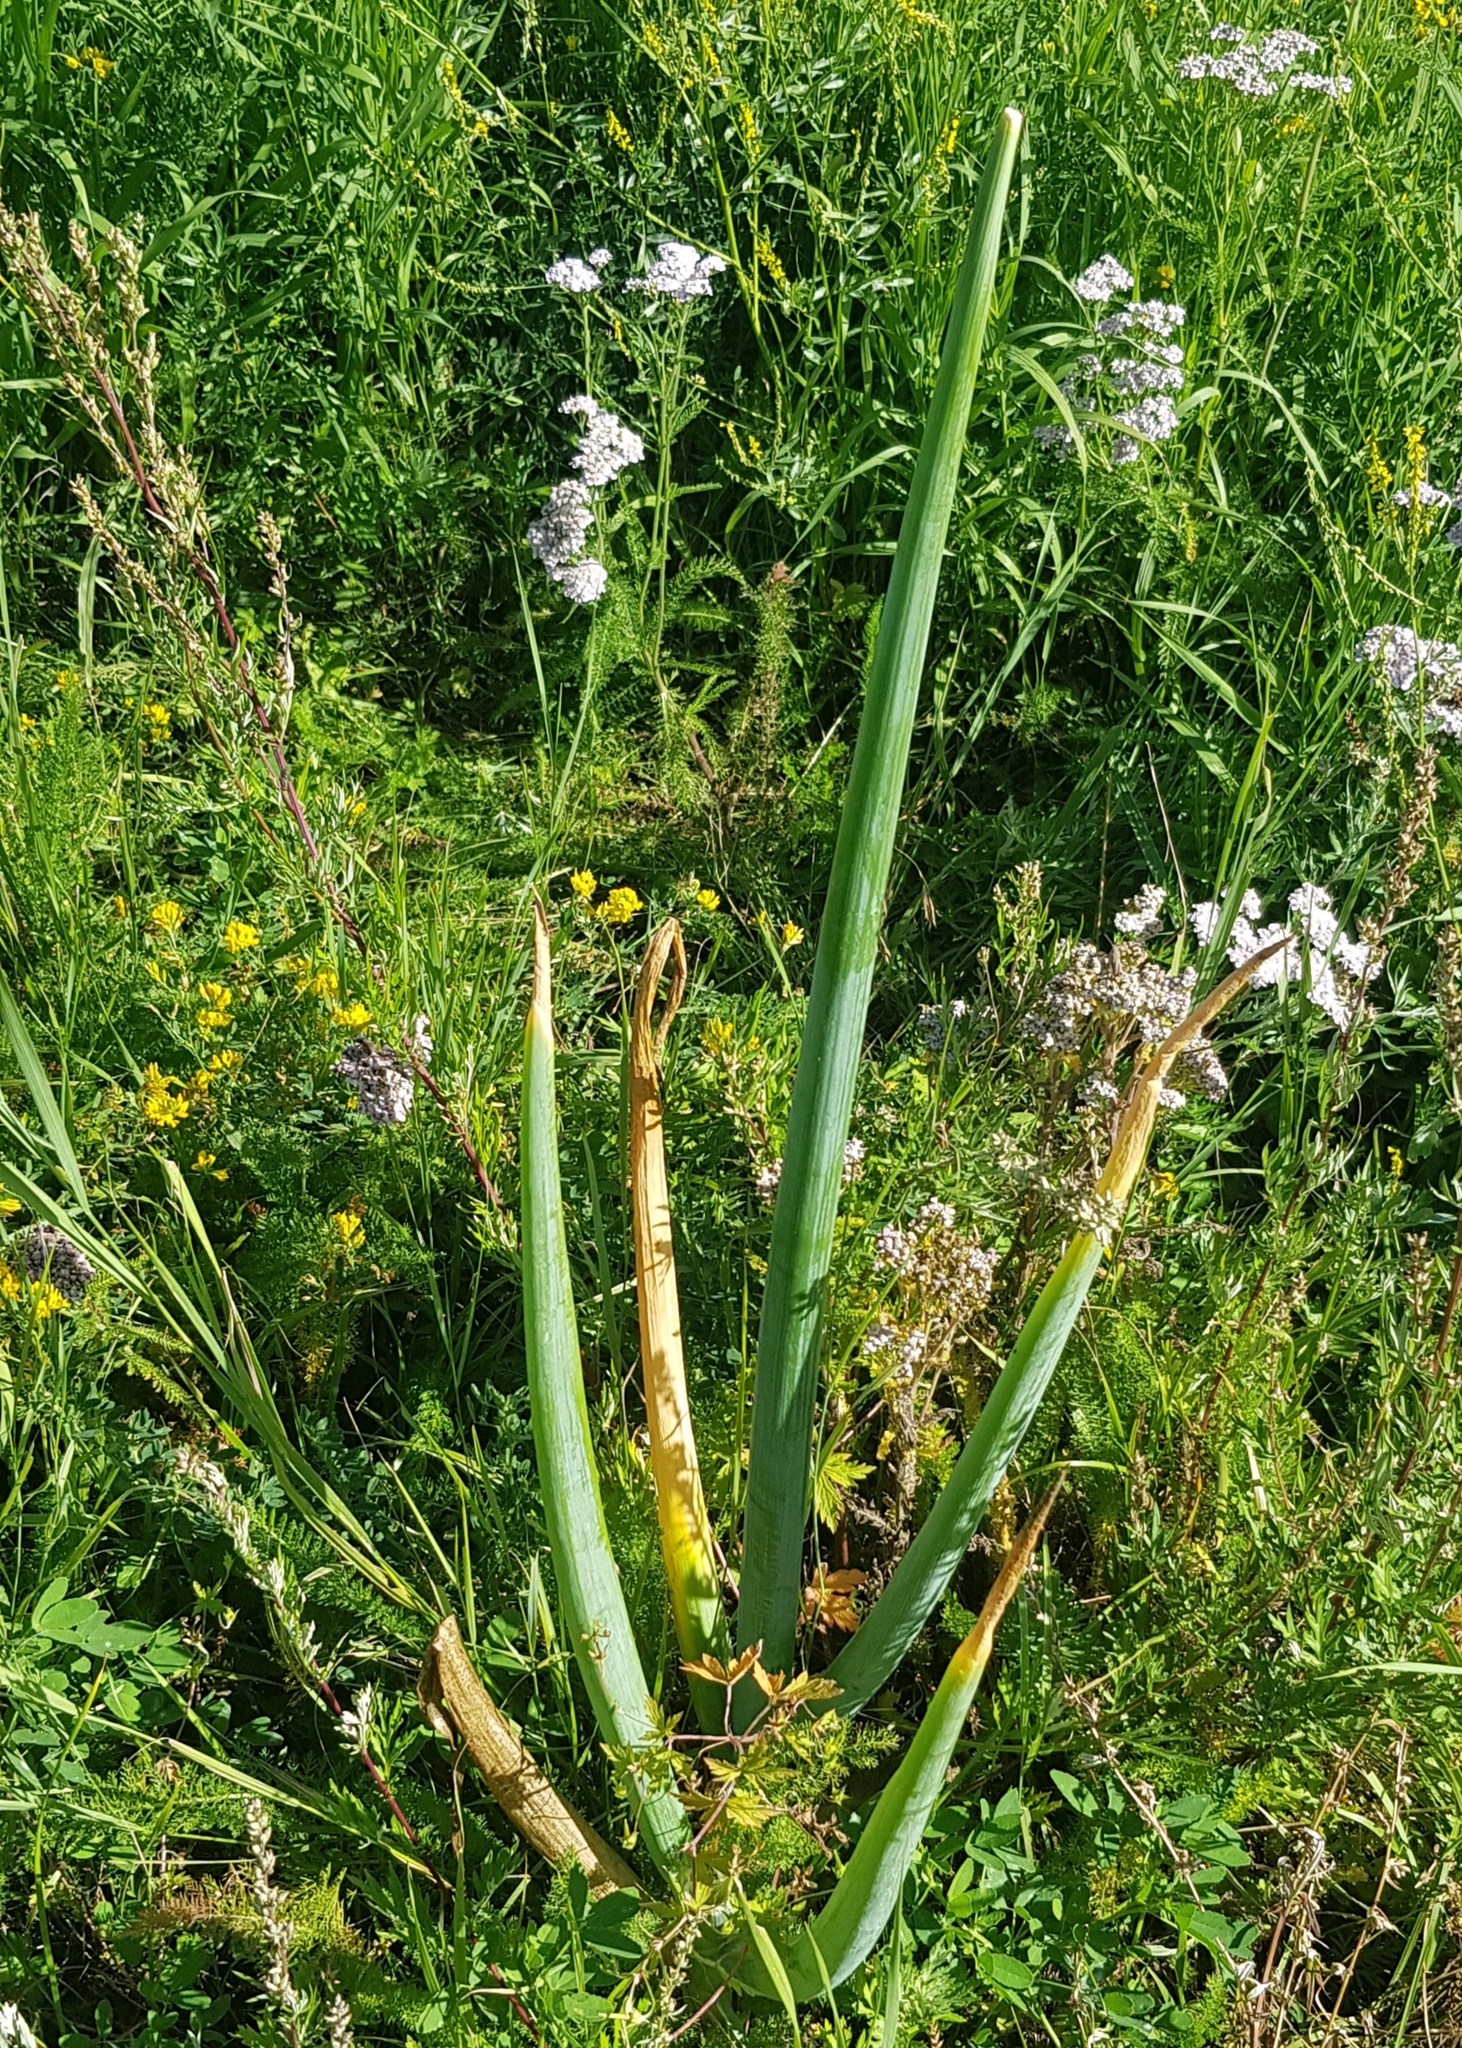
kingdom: Plantae
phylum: Tracheophyta
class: Liliopsida
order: Asparagales
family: Amaryllidaceae
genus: Allium
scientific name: Allium altaicum
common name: Altai onion
